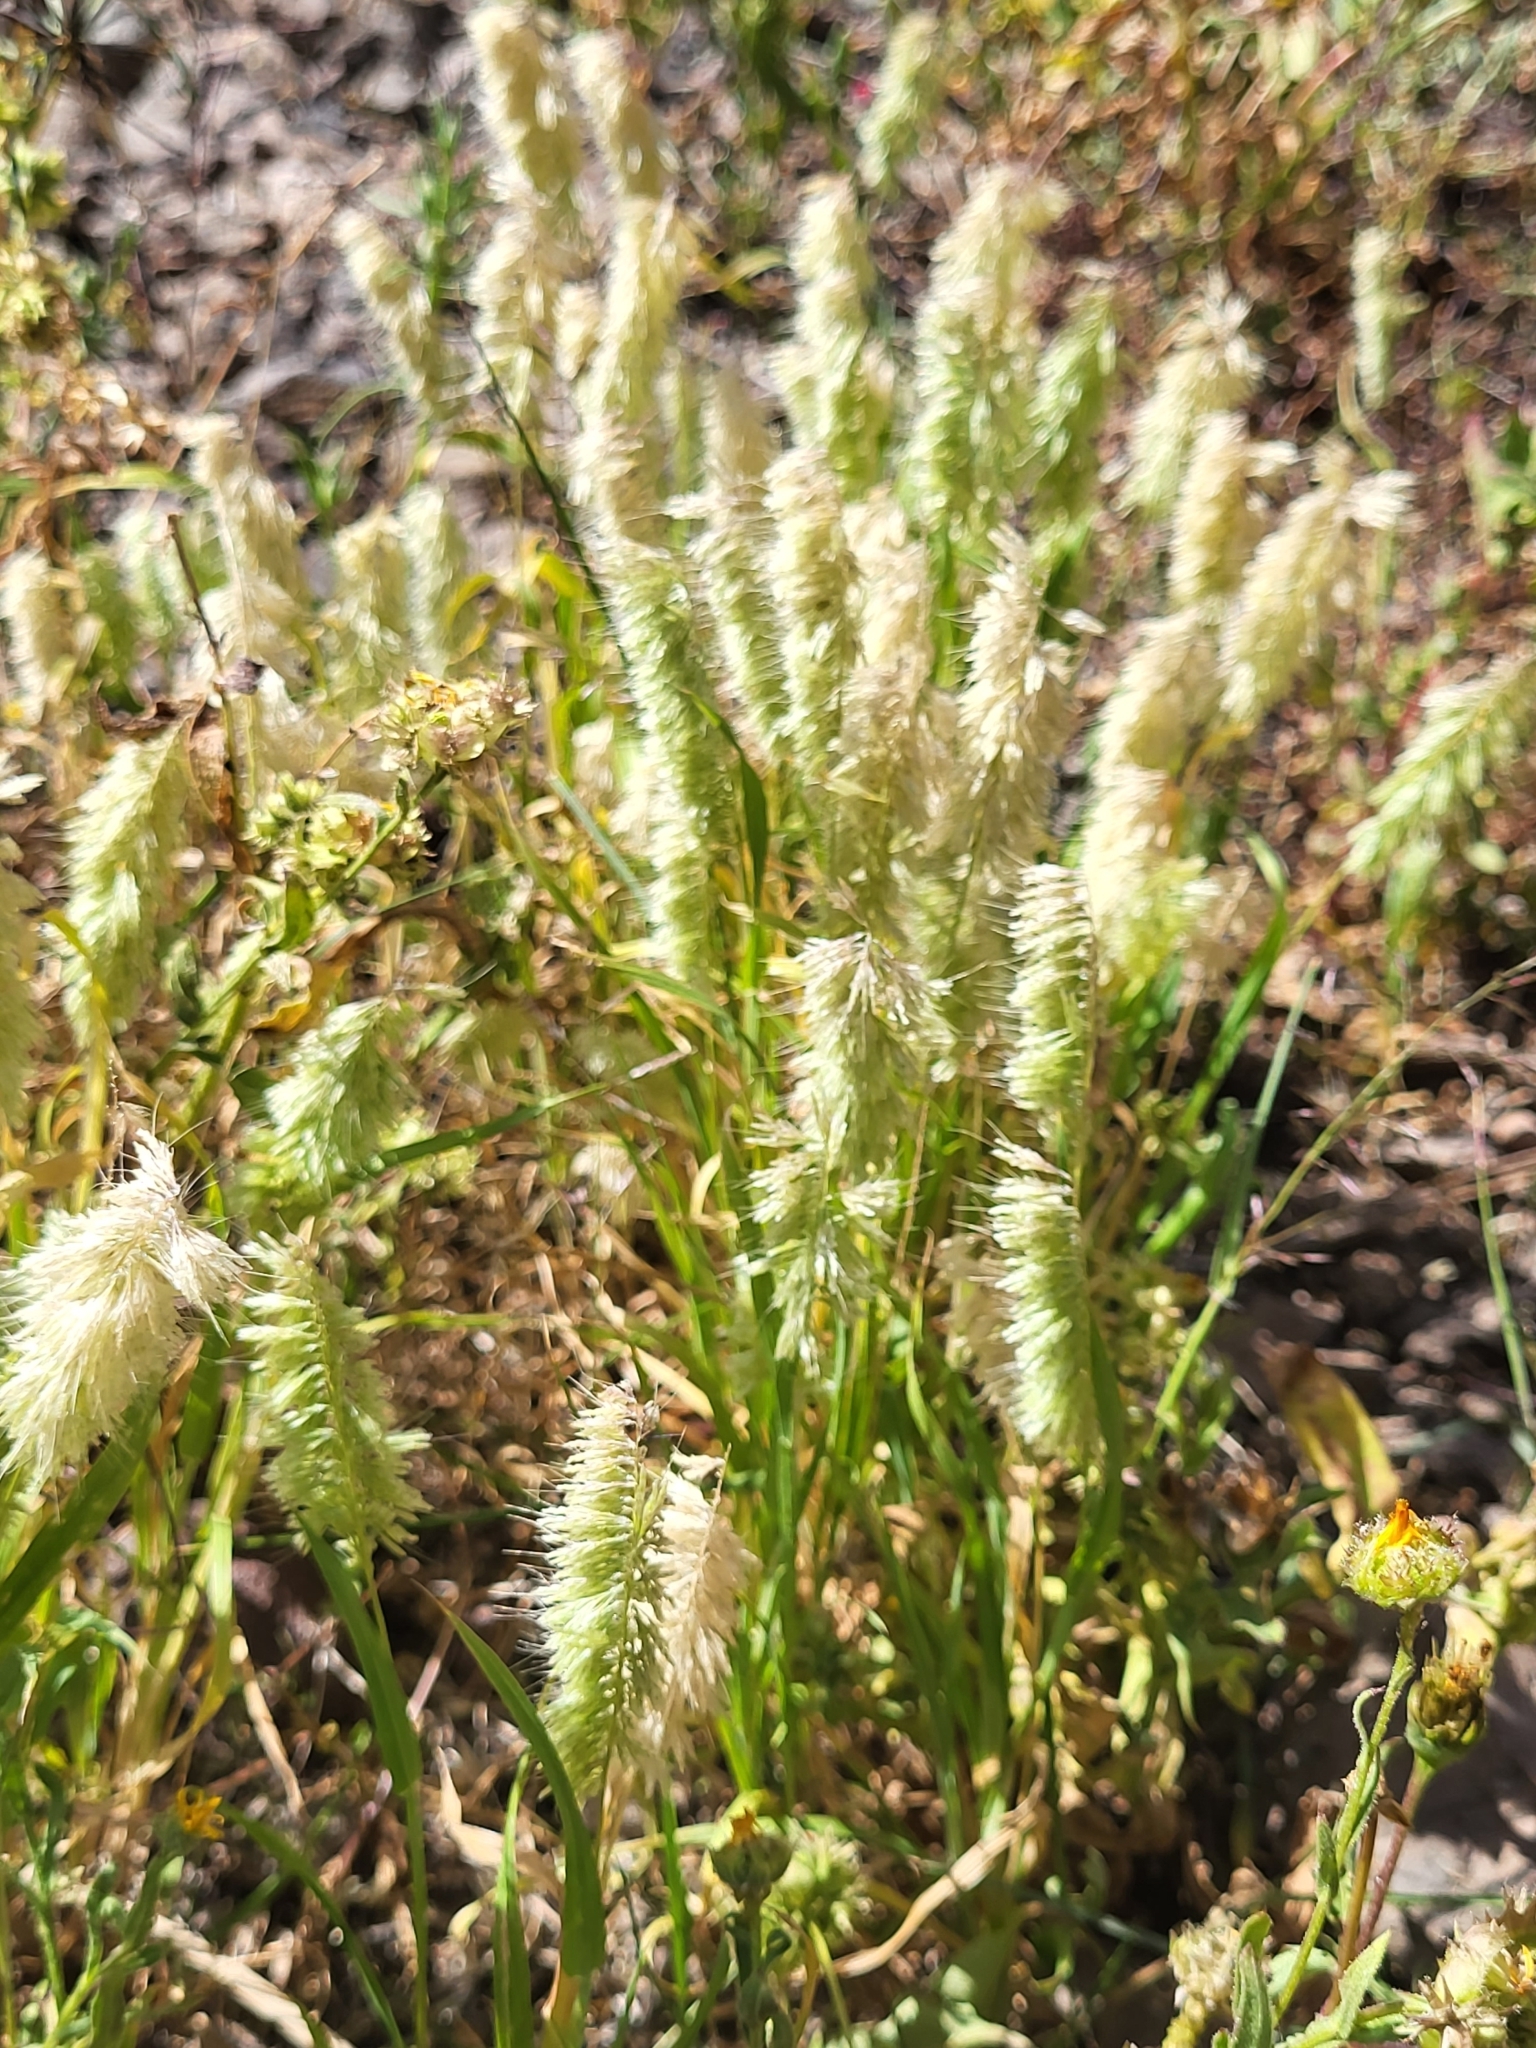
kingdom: Plantae
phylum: Tracheophyta
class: Liliopsida
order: Poales
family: Poaceae
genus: Lamarckia
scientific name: Lamarckia aurea
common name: Golden dog's-tail
